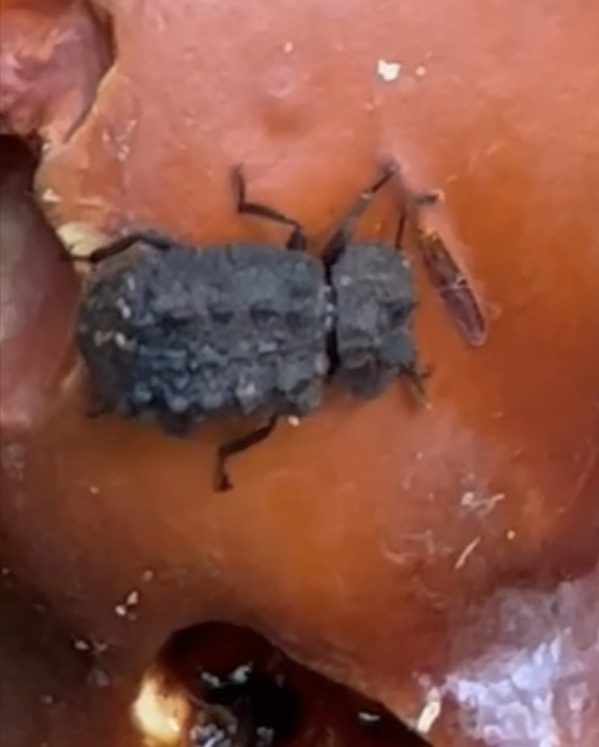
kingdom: Animalia
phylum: Arthropoda
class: Insecta
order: Coleoptera
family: Tenebrionidae
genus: Gnatocerus
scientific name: Gnatocerus cornutus
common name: Broad-horned flour beetle
